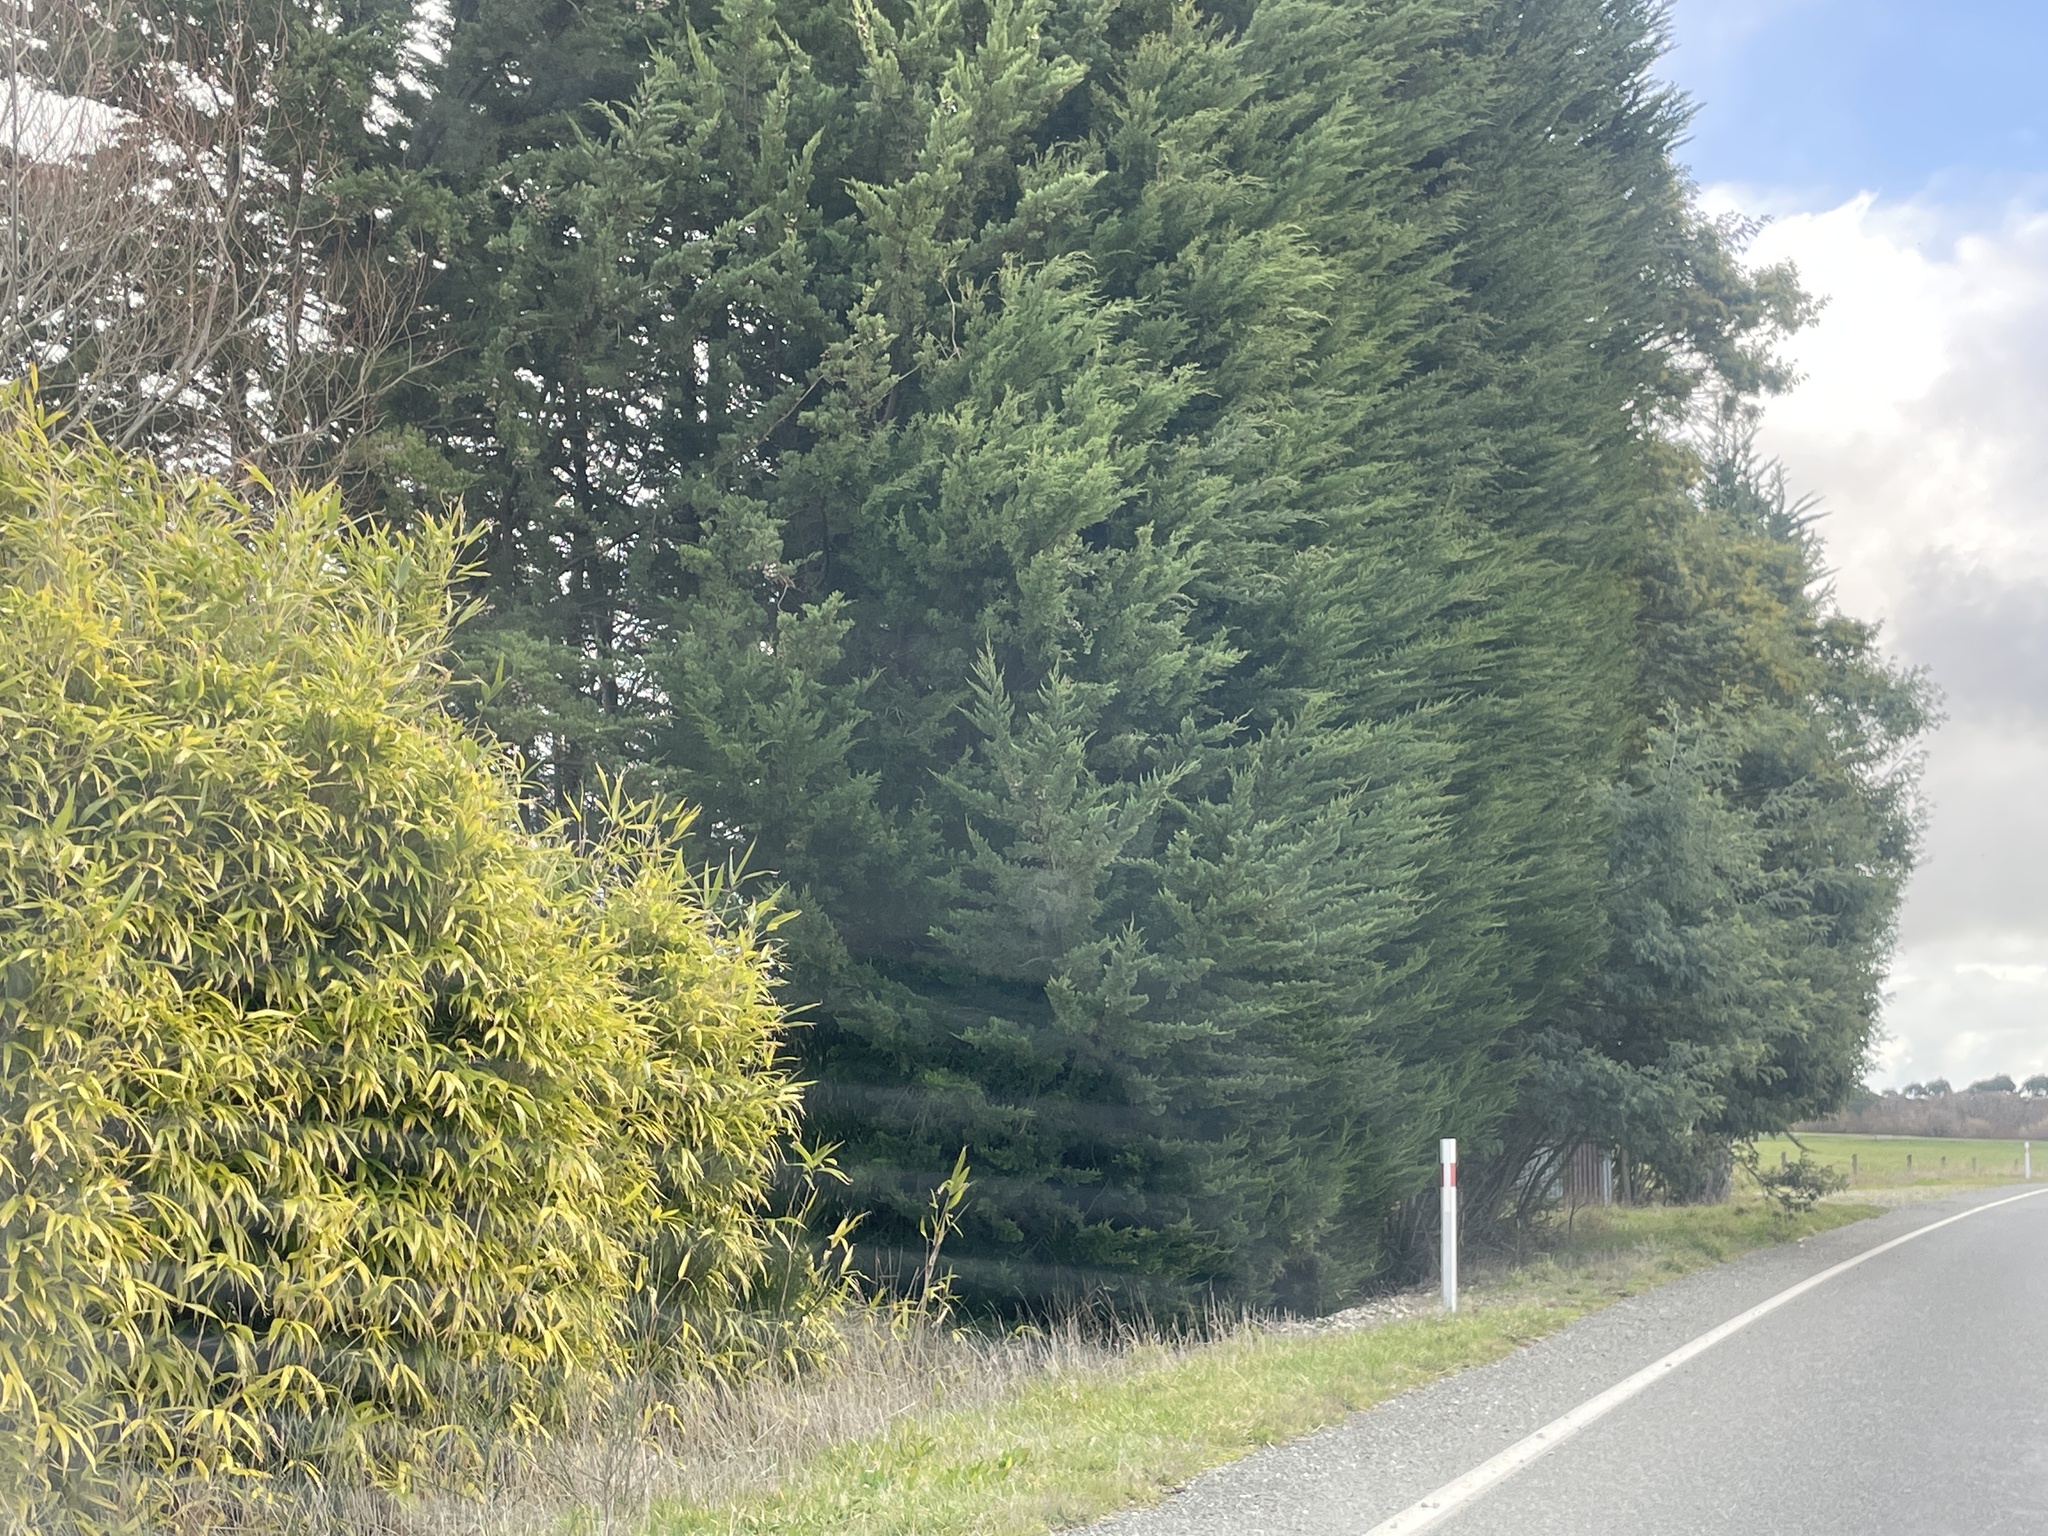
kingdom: Plantae
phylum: Tracheophyta
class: Liliopsida
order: Poales
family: Poaceae
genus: Pseudosasa
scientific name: Pseudosasa japonica
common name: Arrow bamboo
